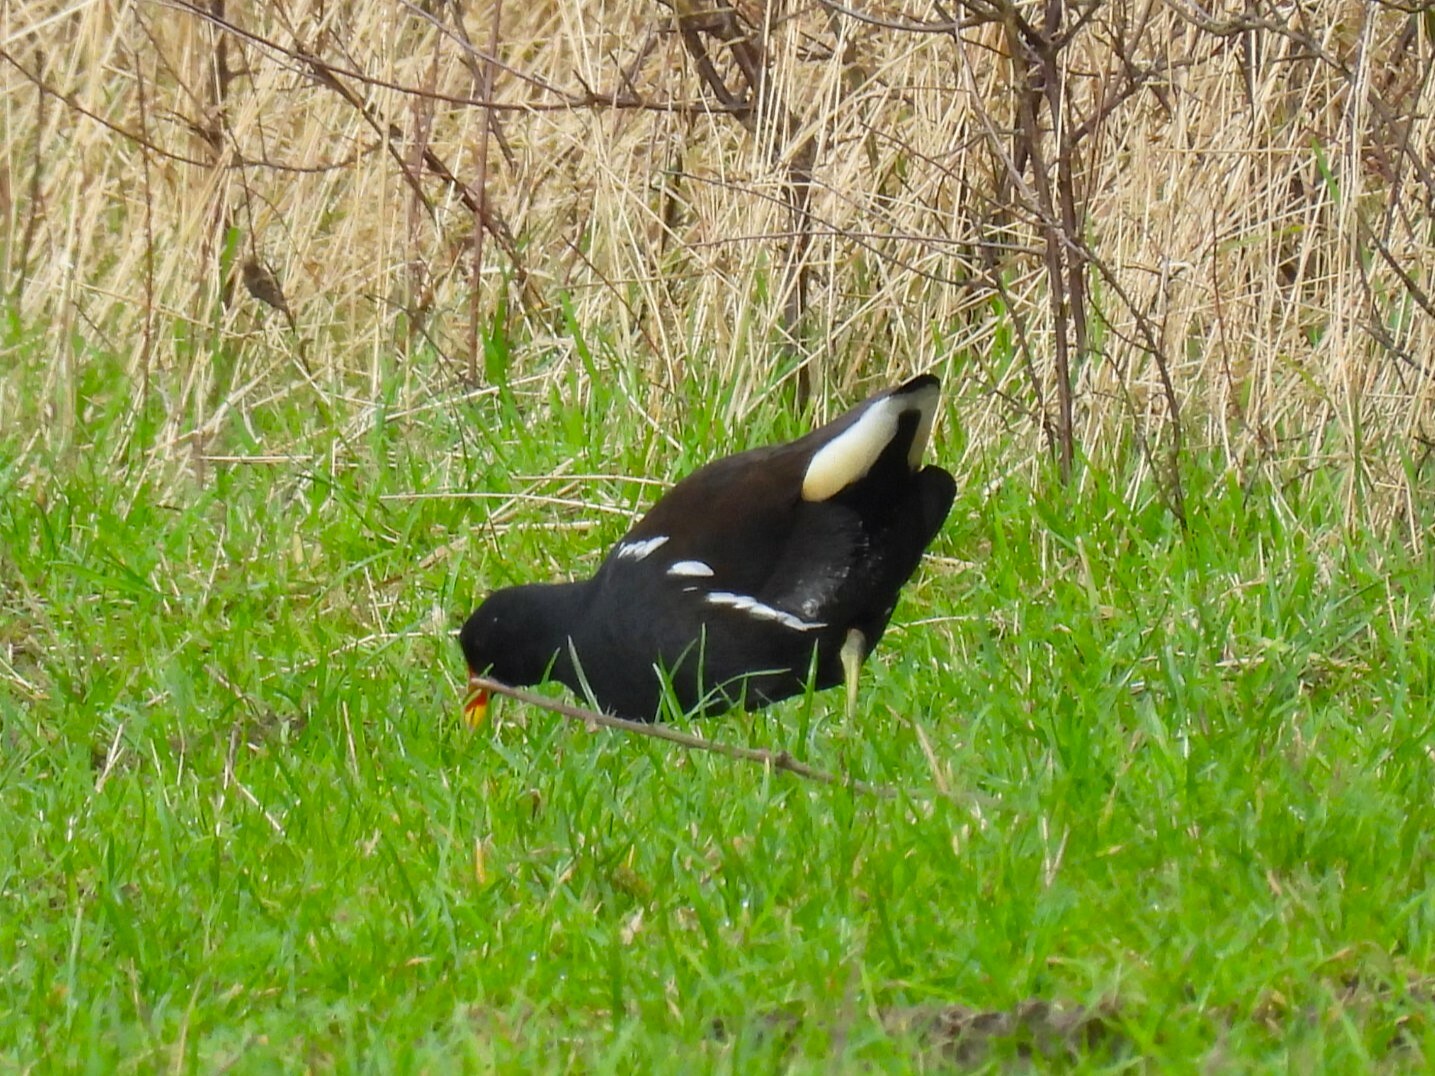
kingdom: Animalia
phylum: Chordata
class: Aves
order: Gruiformes
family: Rallidae
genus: Gallinula
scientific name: Gallinula chloropus
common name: Common moorhen
